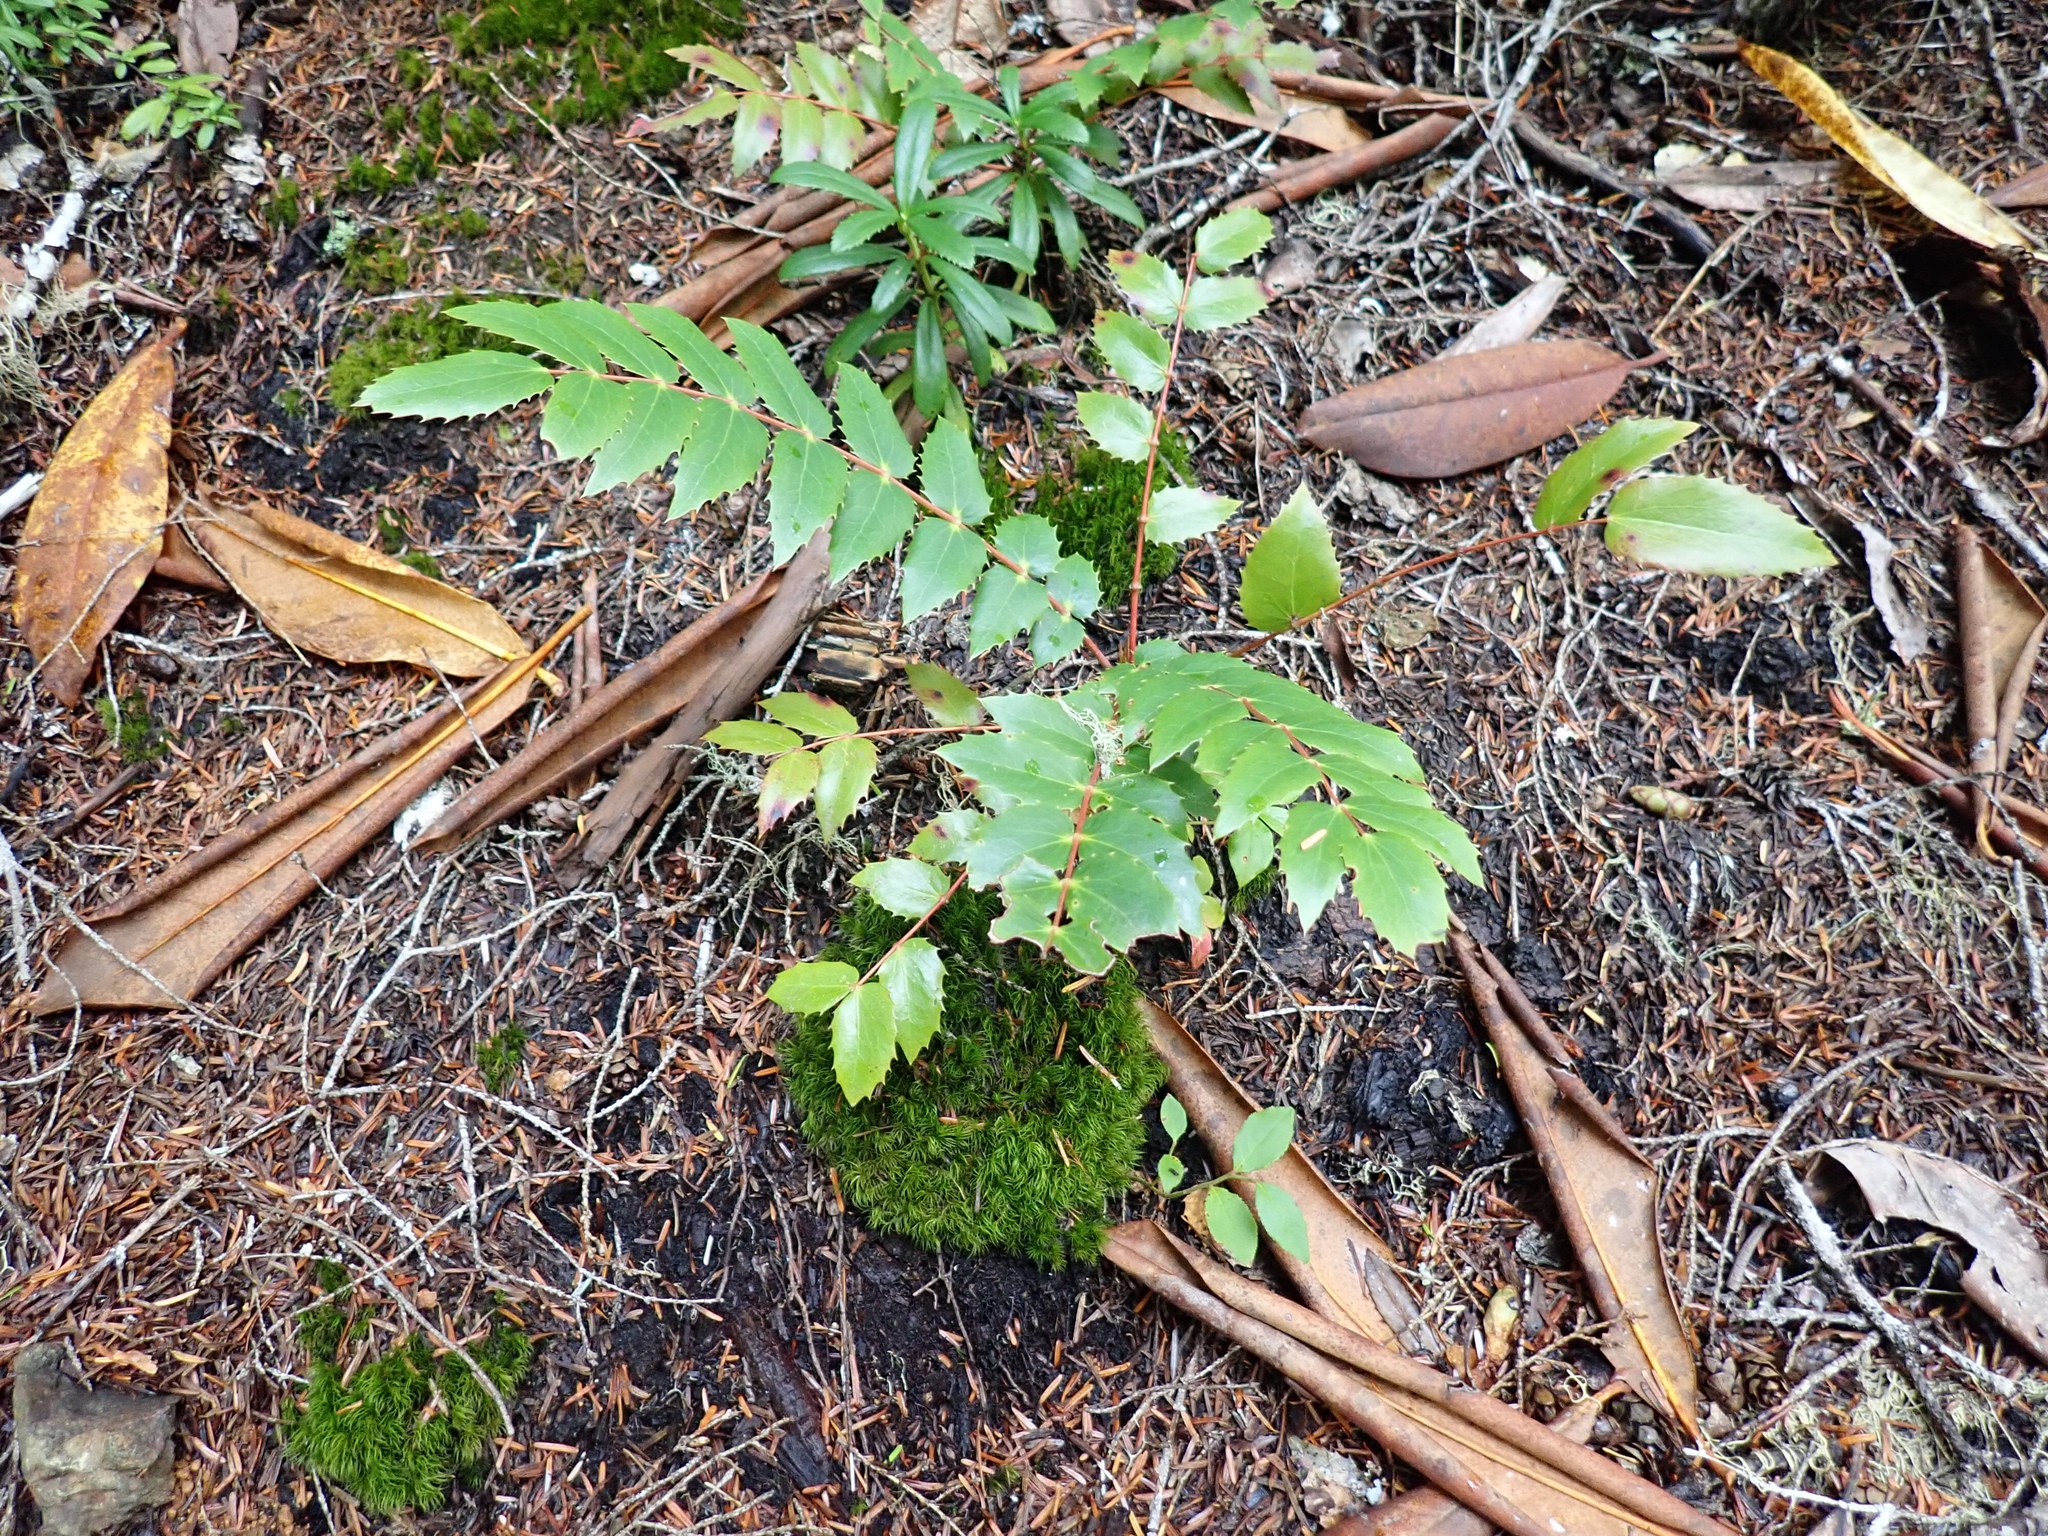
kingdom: Plantae
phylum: Tracheophyta
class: Magnoliopsida
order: Ranunculales
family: Berberidaceae
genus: Mahonia
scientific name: Mahonia nervosa
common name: Cascade oregon-grape
